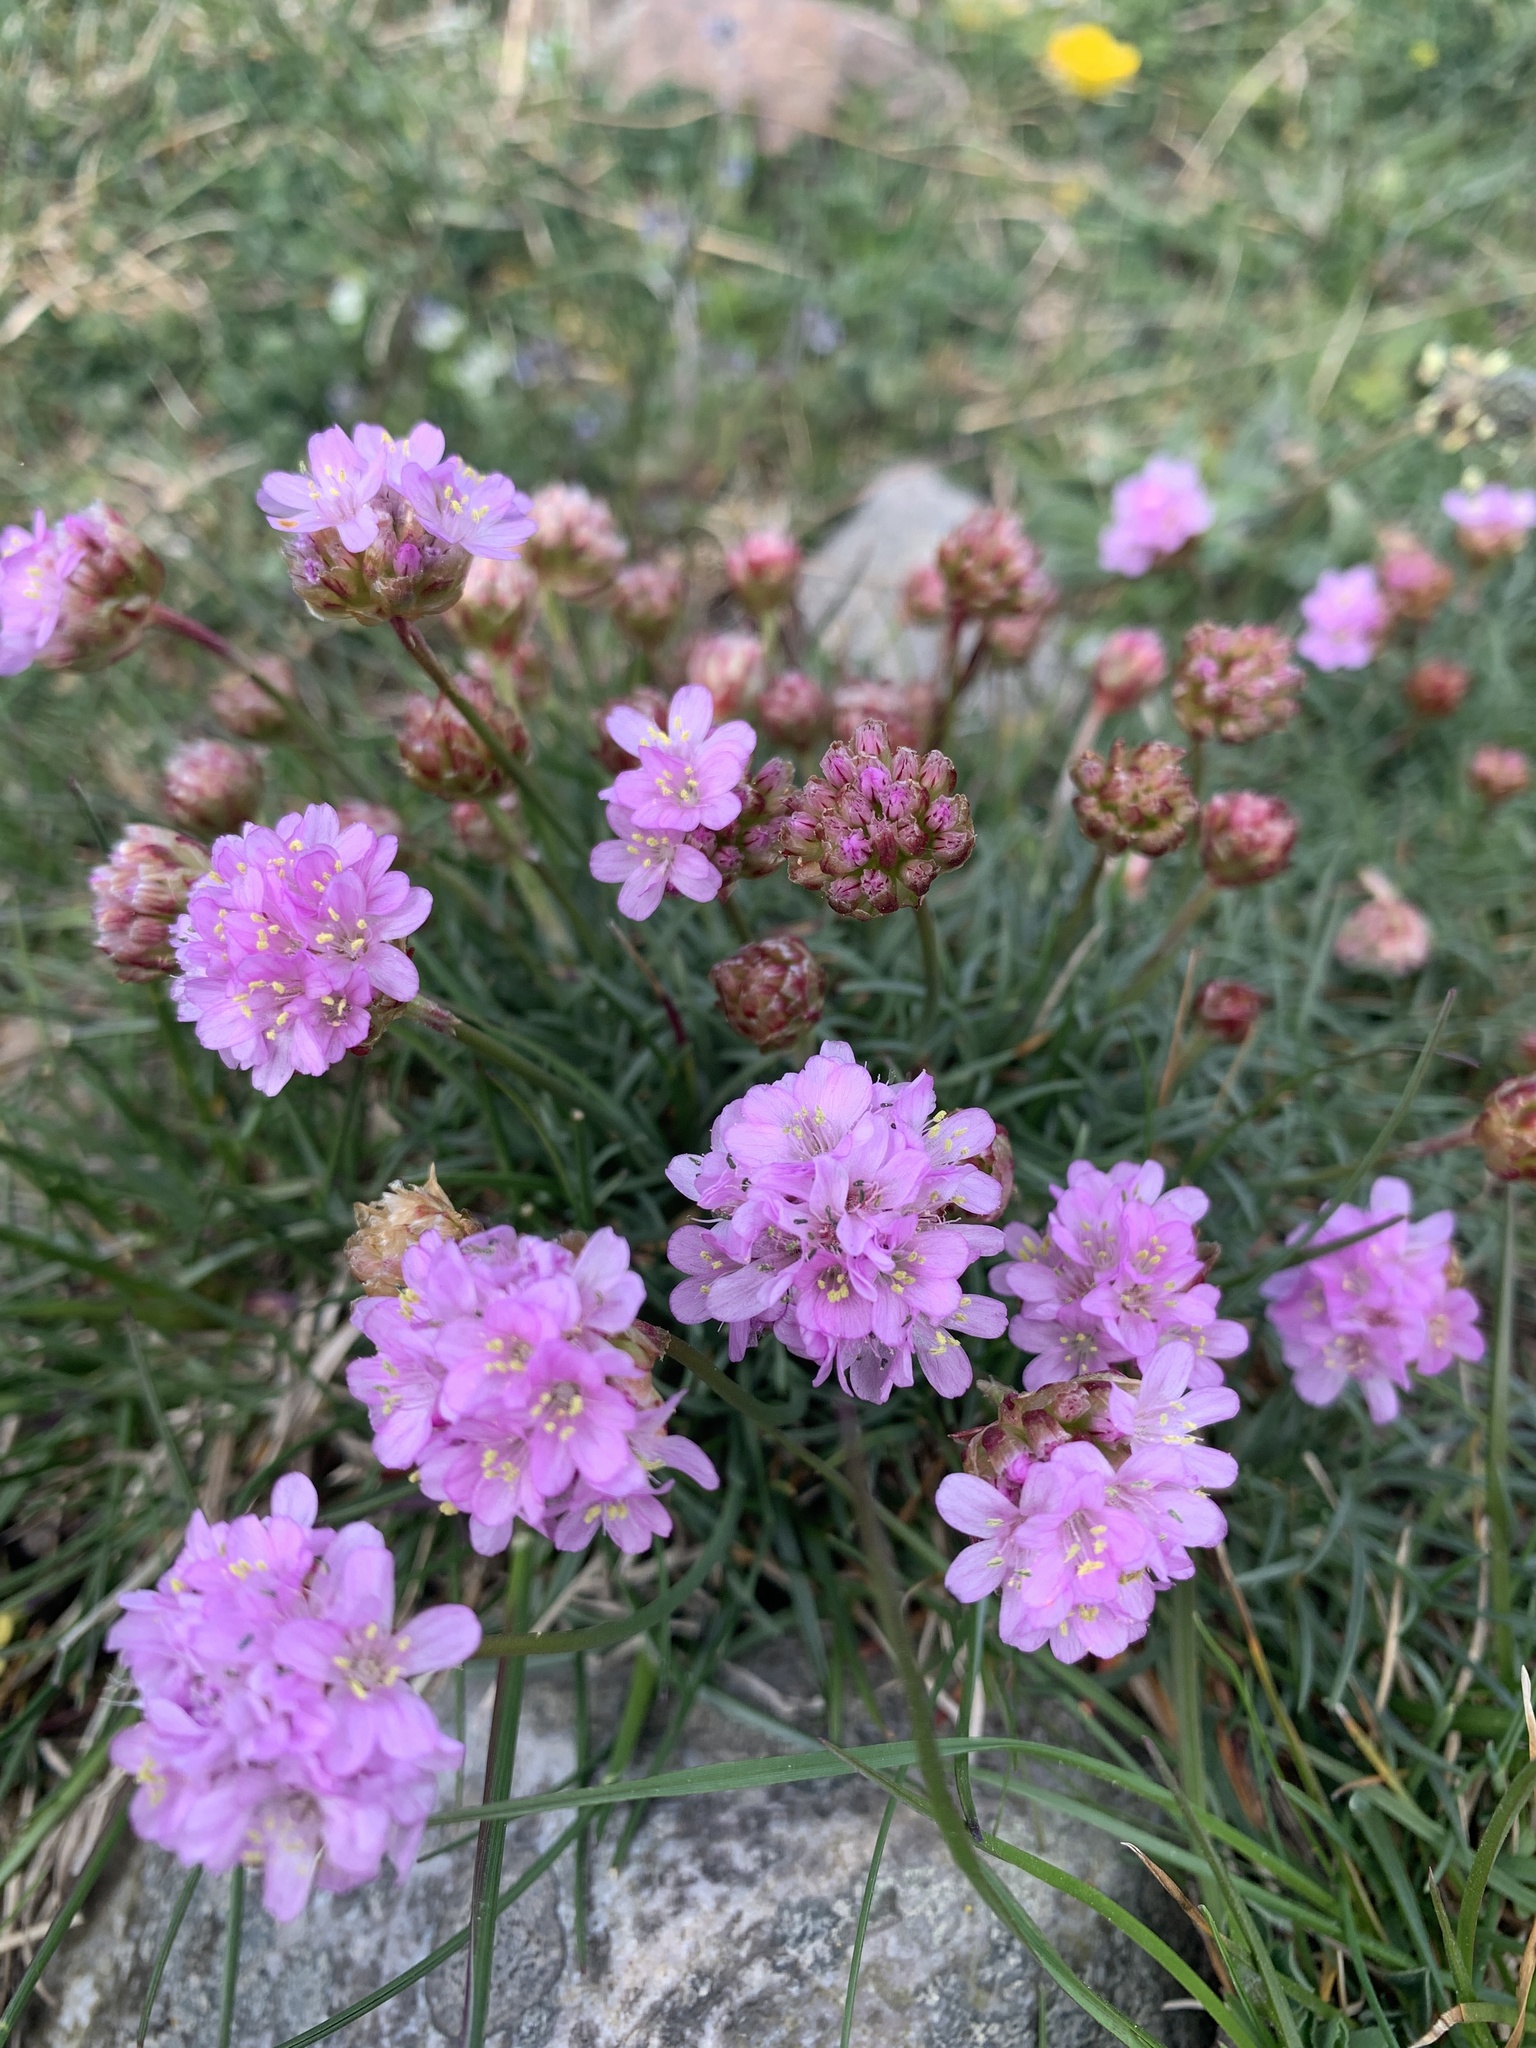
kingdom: Plantae
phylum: Tracheophyta
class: Magnoliopsida
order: Caryophyllales
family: Plumbaginaceae
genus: Armeria
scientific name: Armeria maritima
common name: Thrift
